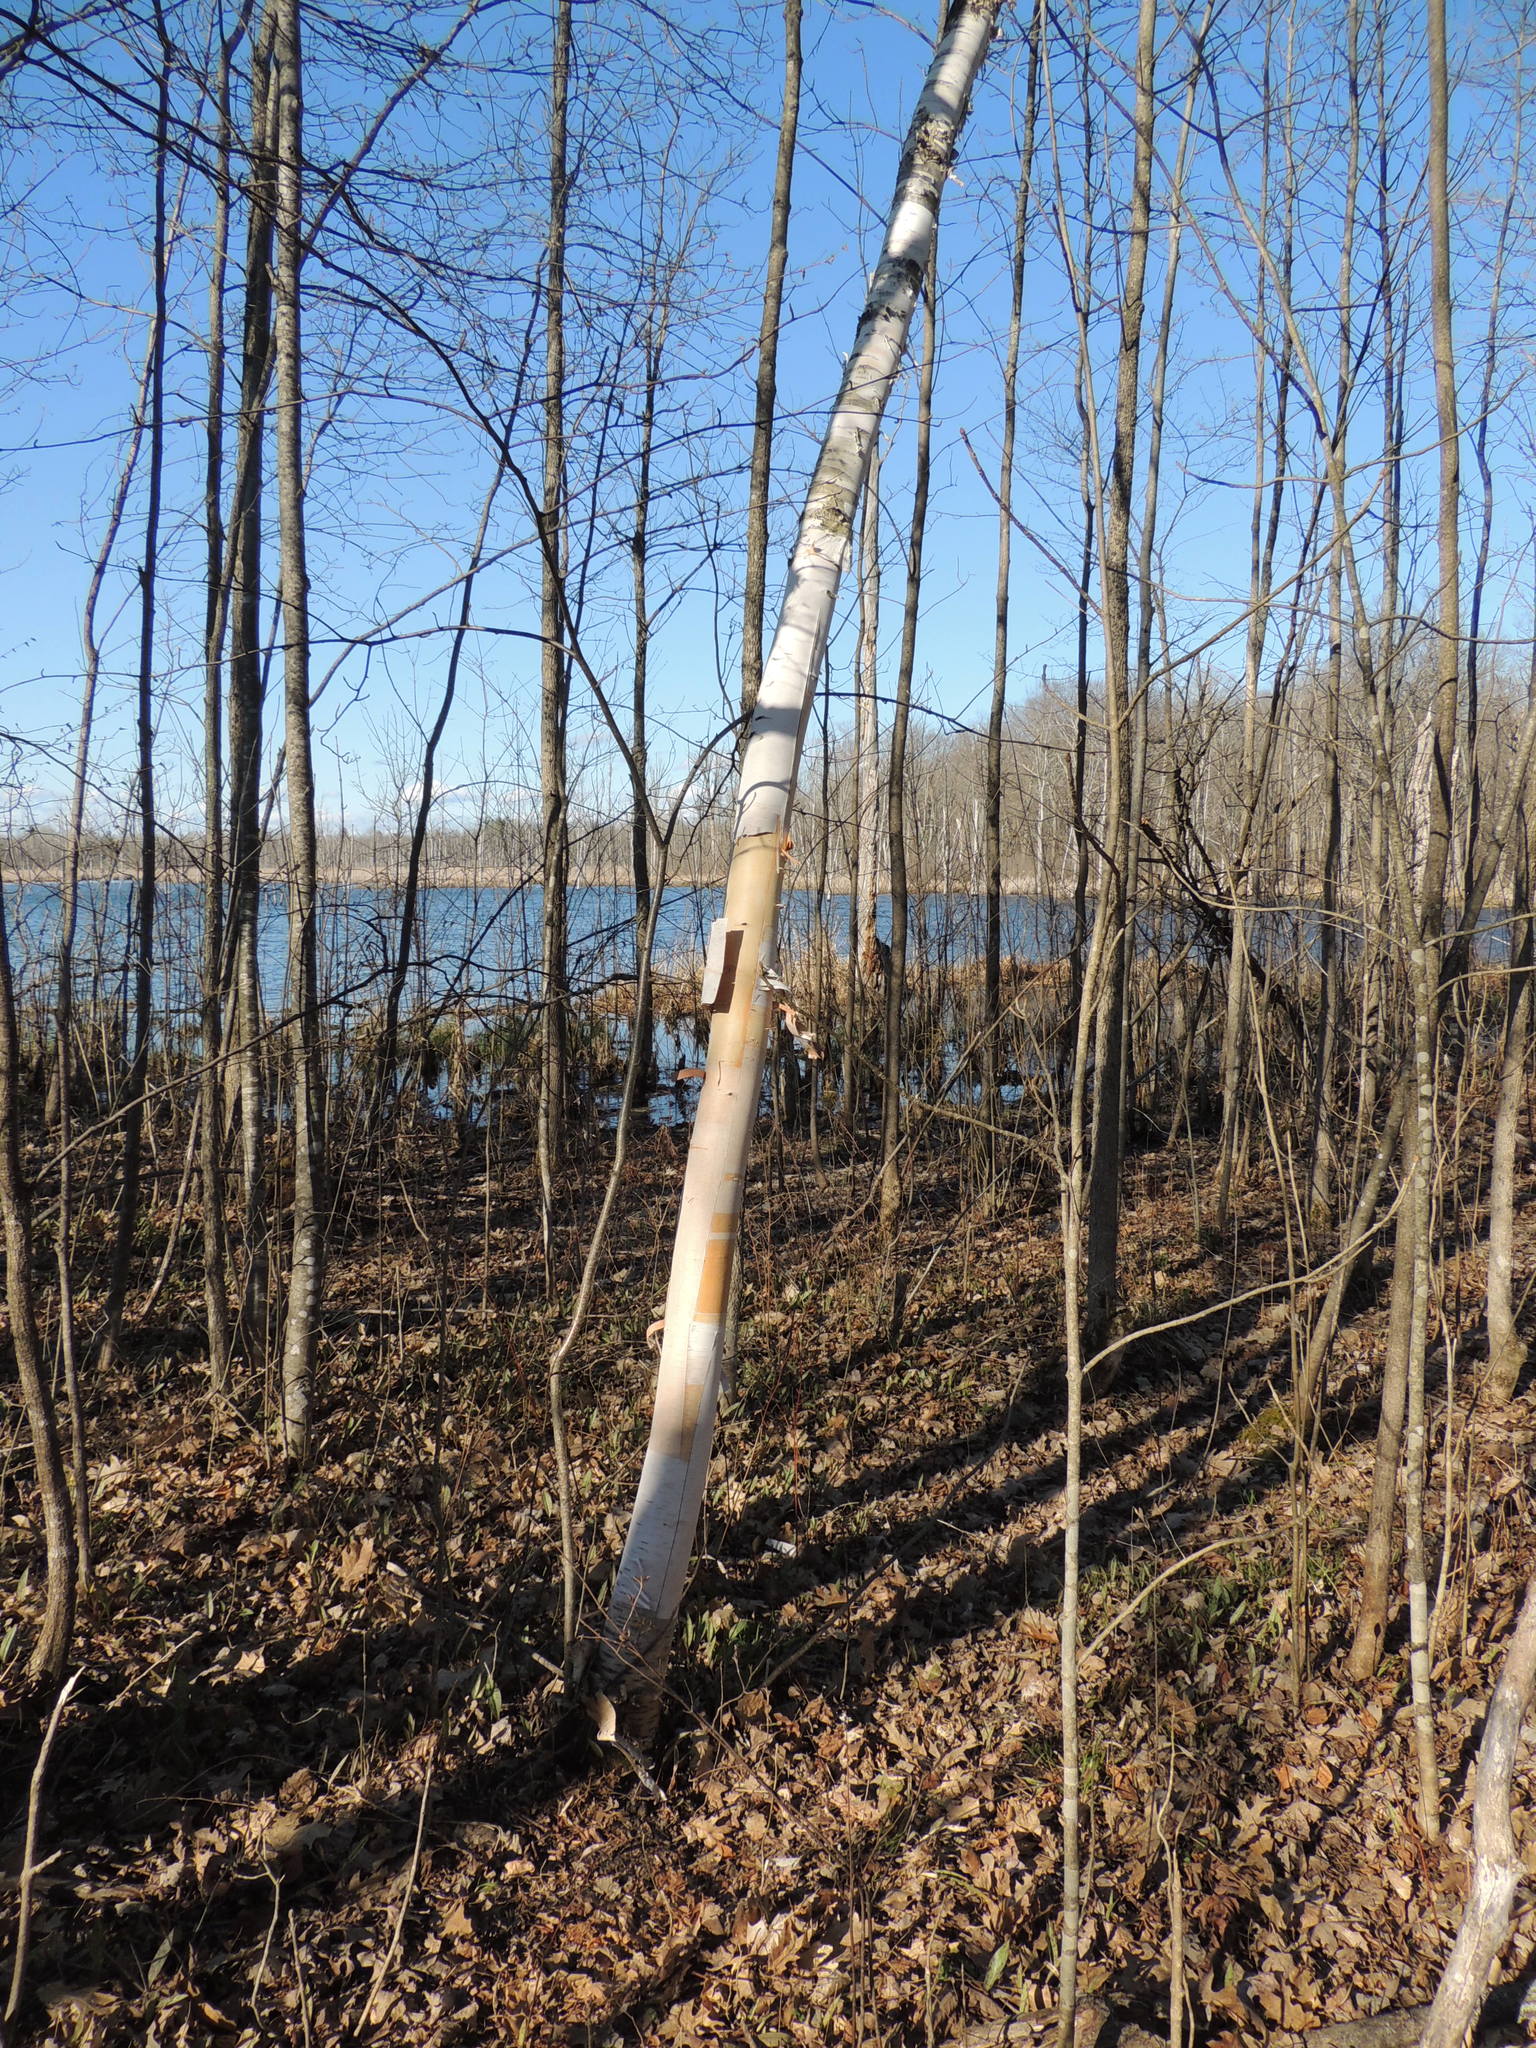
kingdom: Plantae
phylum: Tracheophyta
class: Magnoliopsida
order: Fagales
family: Betulaceae
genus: Betula
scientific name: Betula papyrifera
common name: Paper birch
